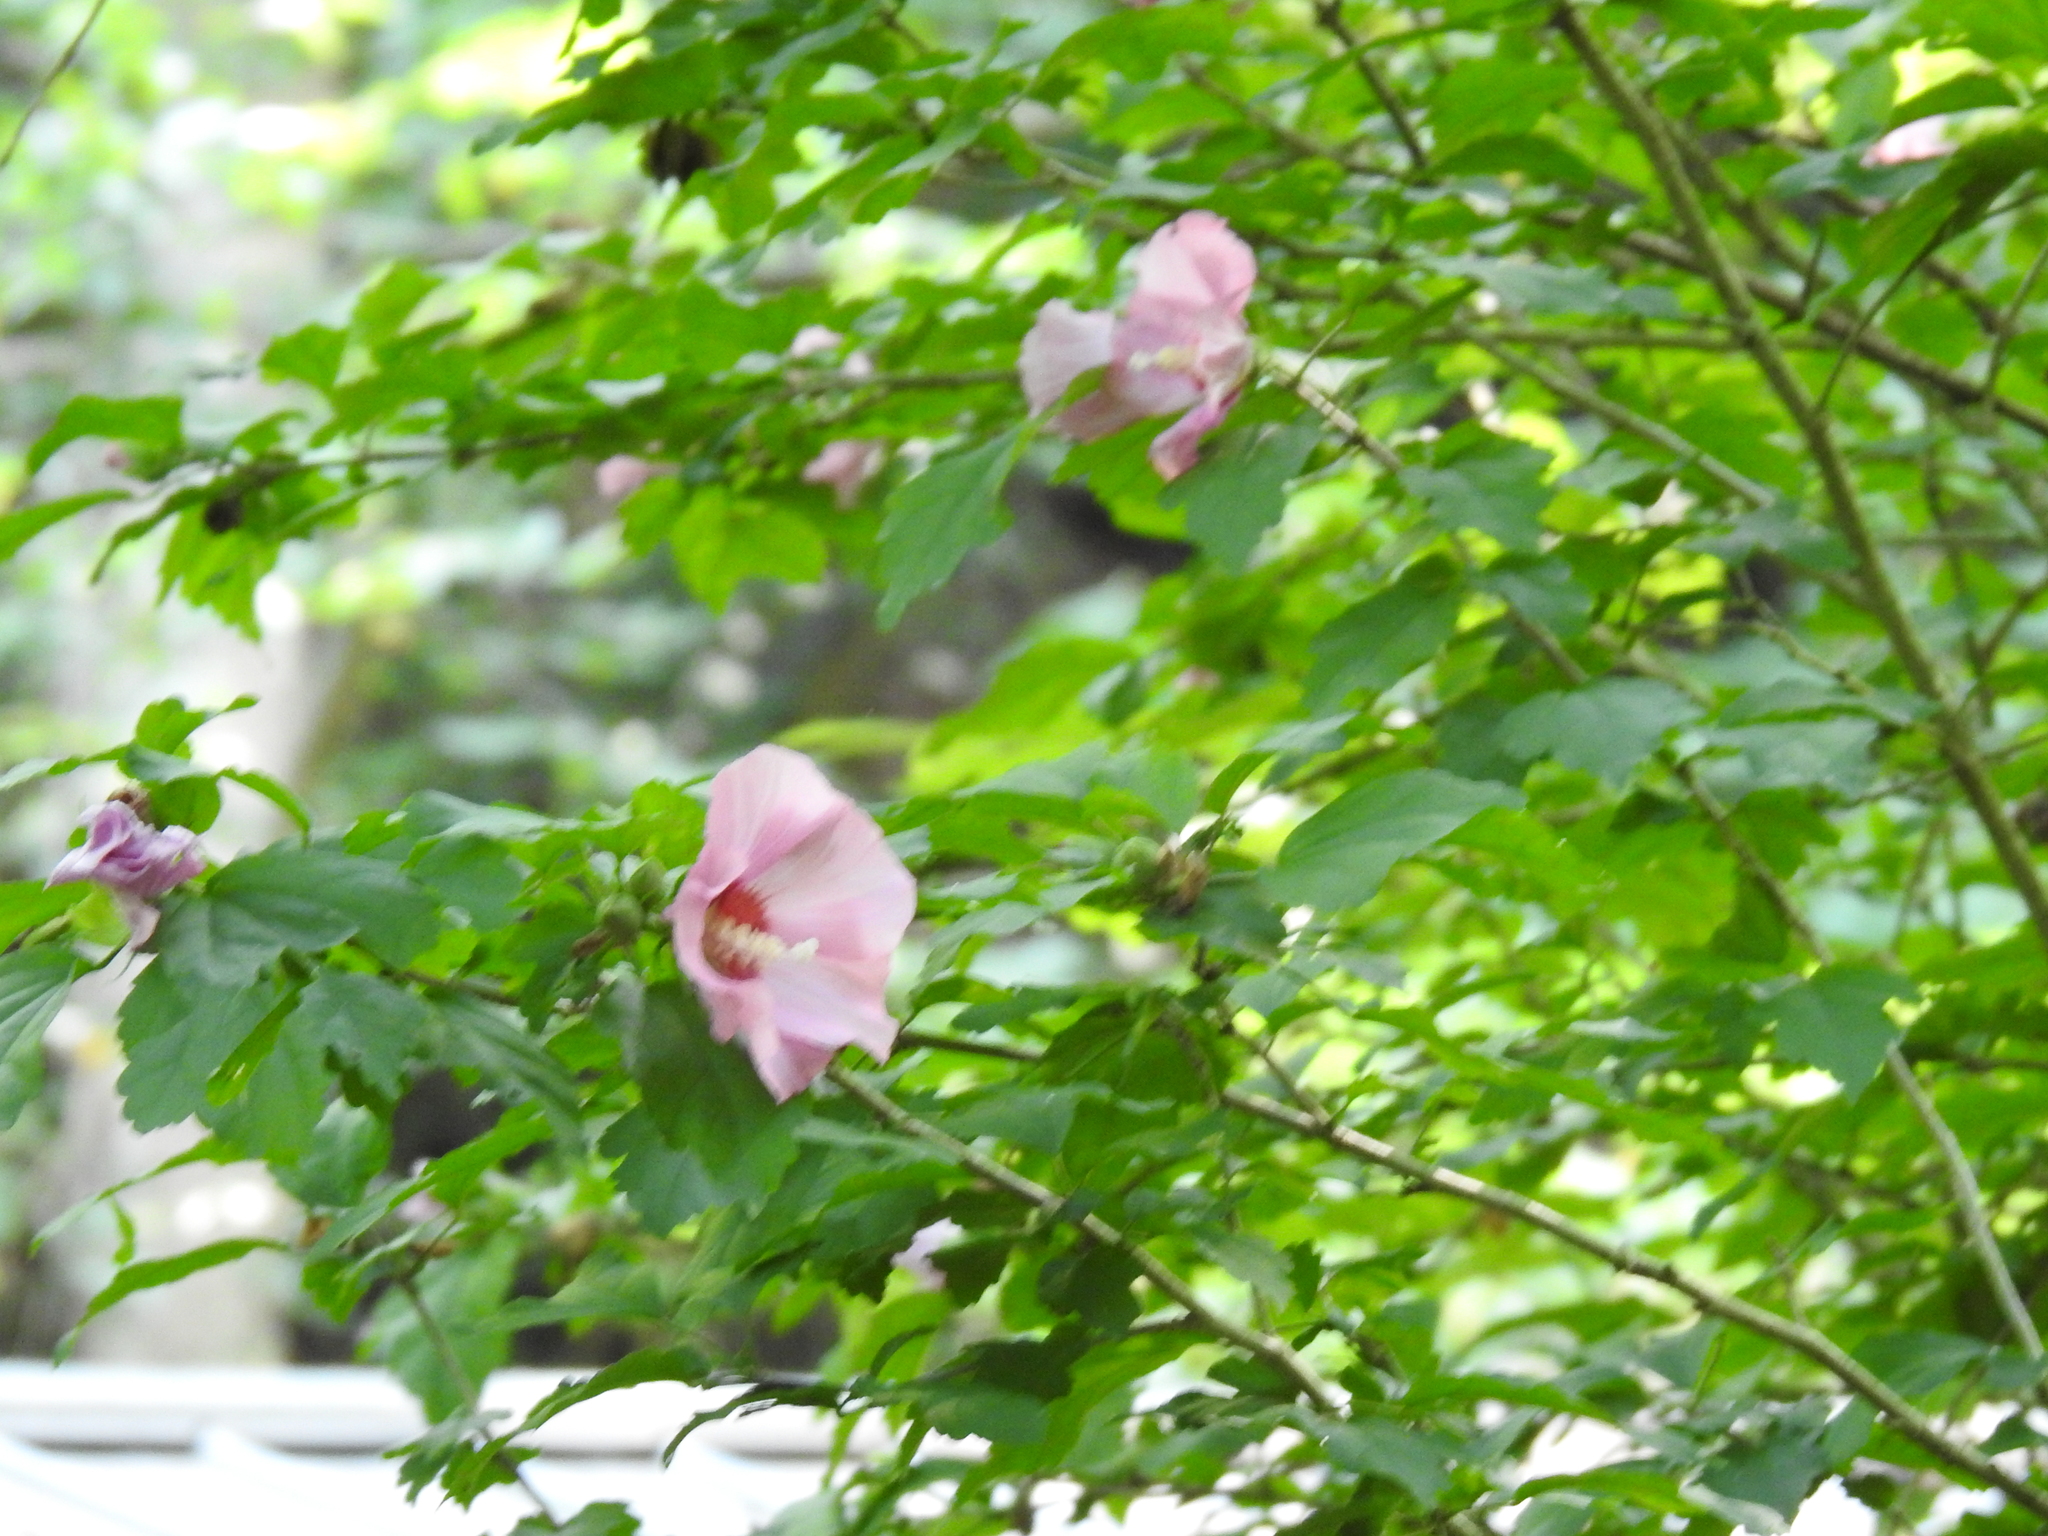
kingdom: Plantae
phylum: Tracheophyta
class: Magnoliopsida
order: Malvales
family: Malvaceae
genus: Hibiscus
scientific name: Hibiscus syriacus
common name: Syrian ketmia
